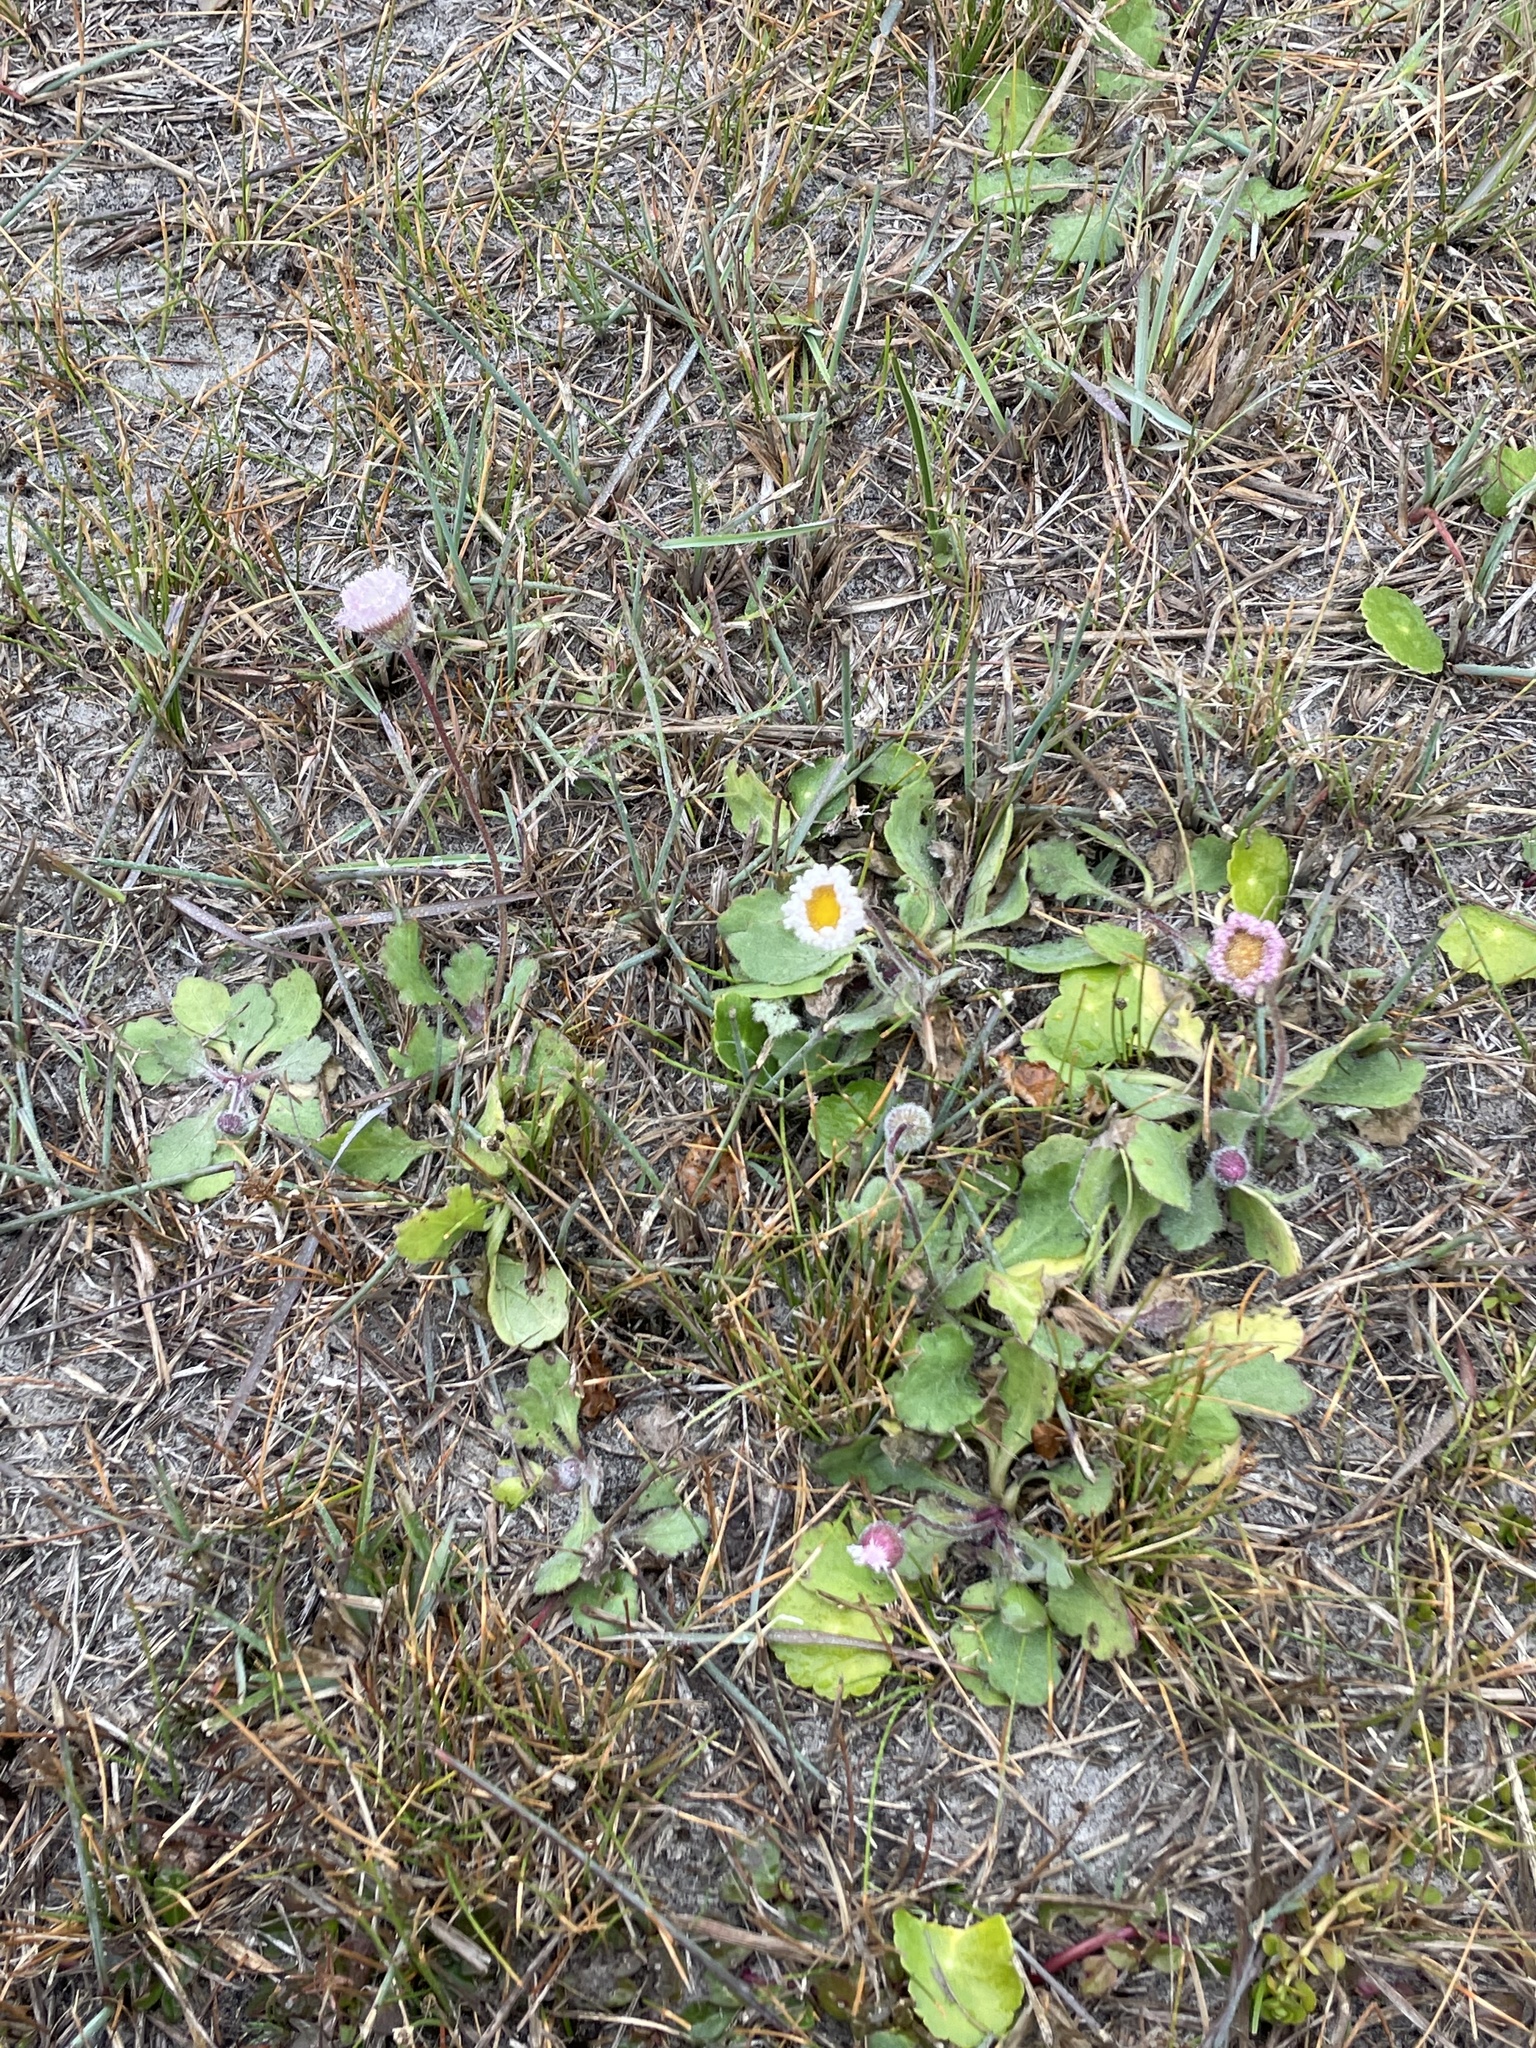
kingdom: Plantae
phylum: Tracheophyta
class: Magnoliopsida
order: Asterales
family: Asteraceae
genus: Erigeron
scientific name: Erigeron procumbens
